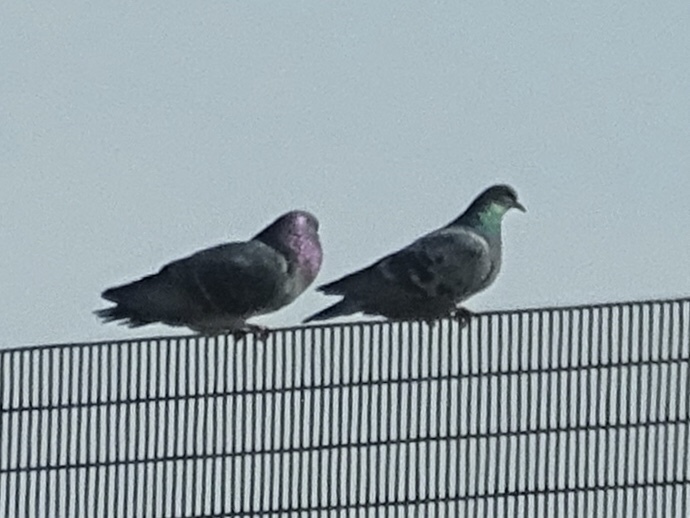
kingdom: Animalia
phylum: Chordata
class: Aves
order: Columbiformes
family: Columbidae
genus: Columba
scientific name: Columba livia
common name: Rock pigeon
